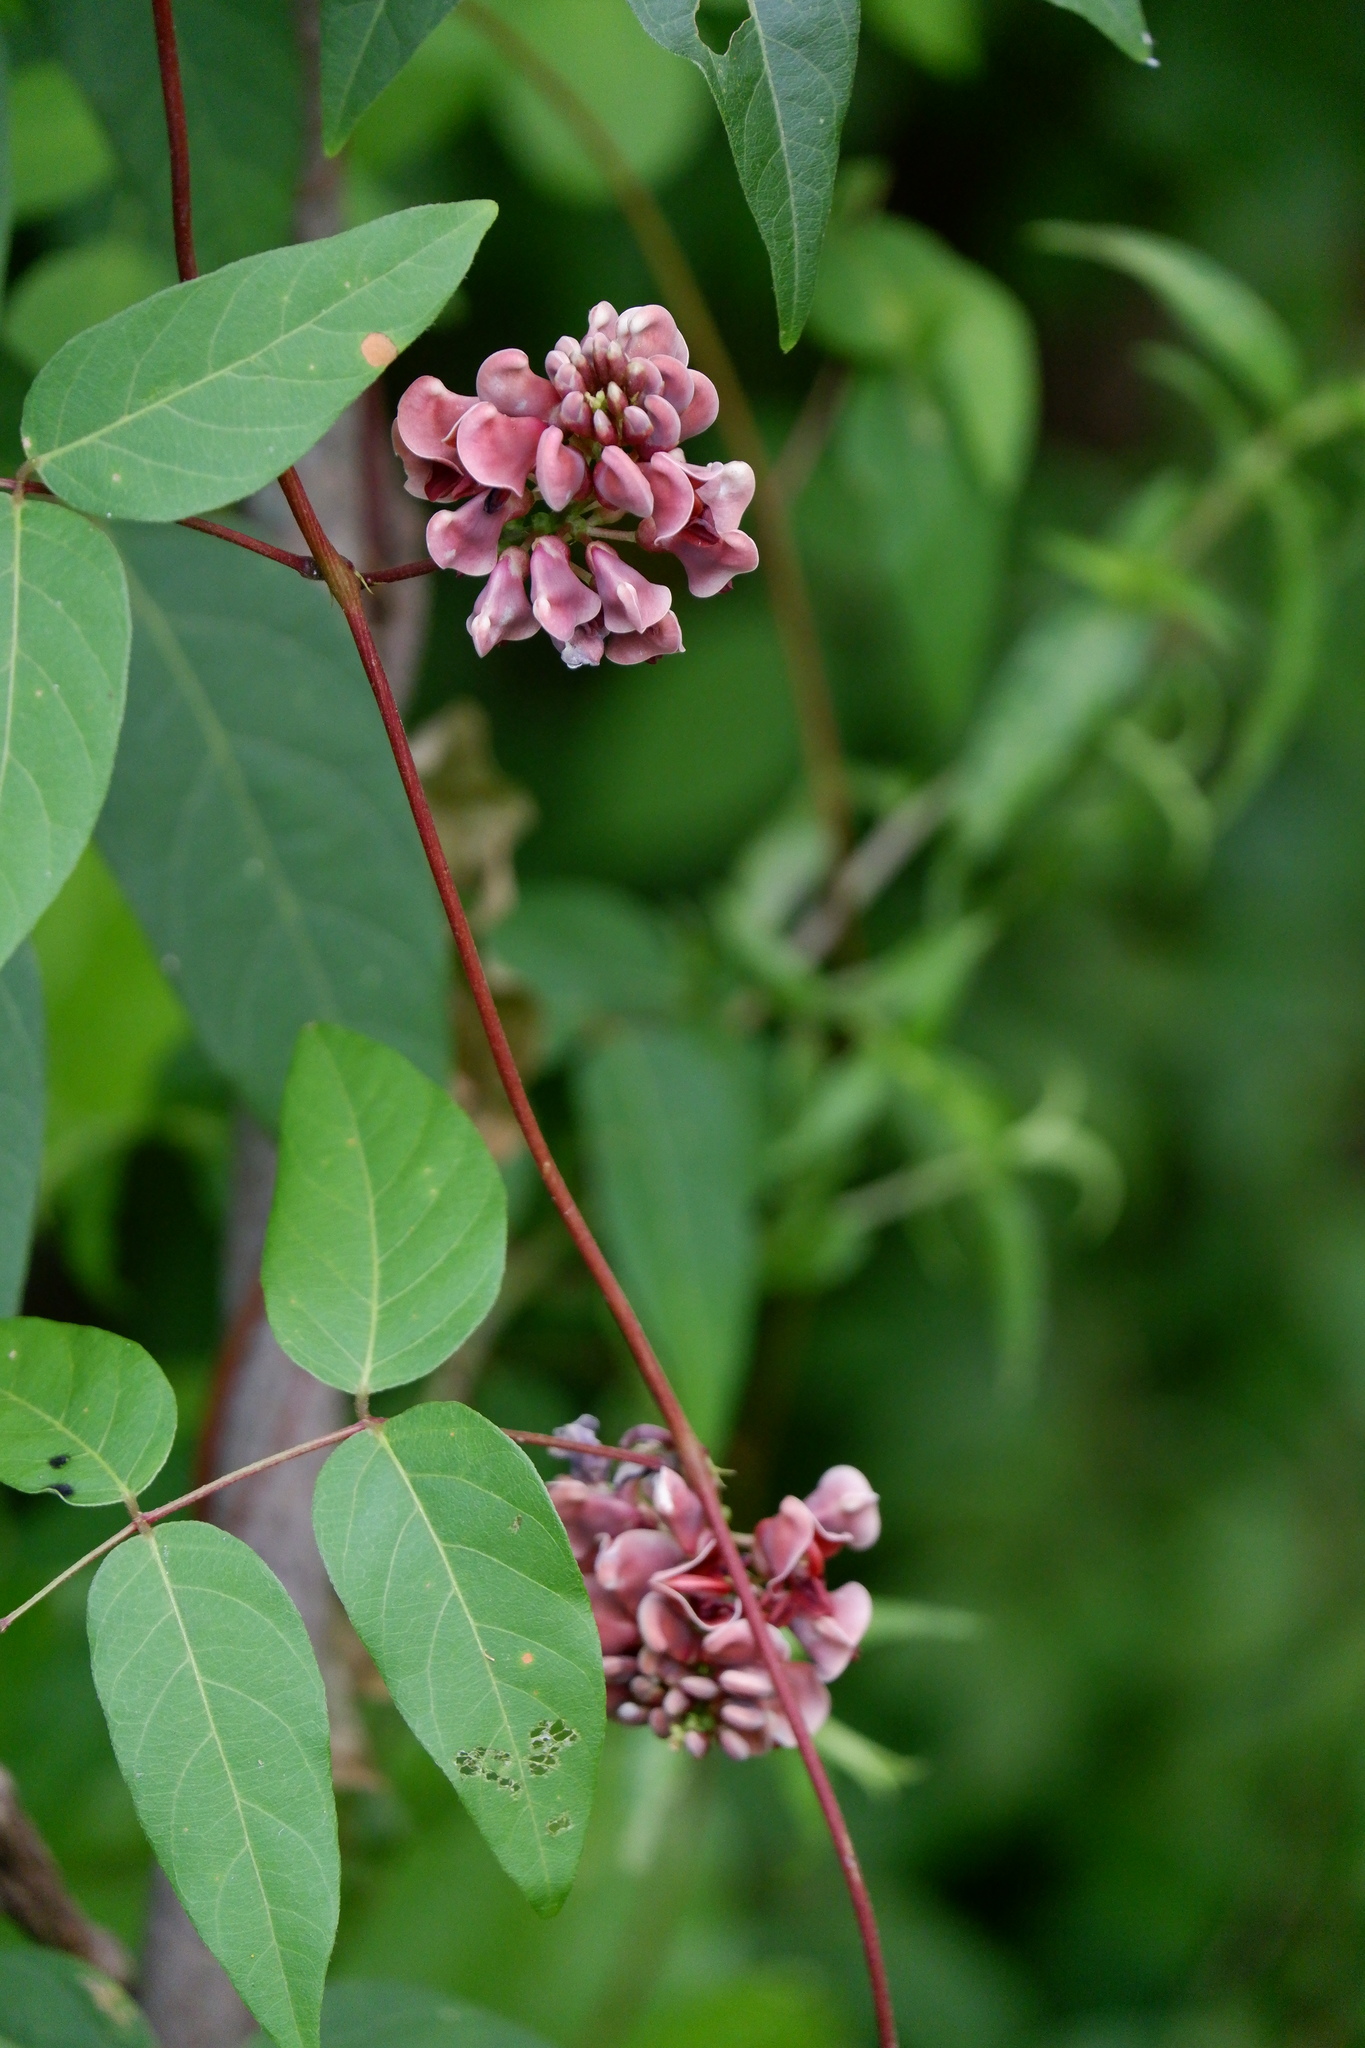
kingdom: Plantae
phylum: Tracheophyta
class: Magnoliopsida
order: Fabales
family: Fabaceae
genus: Apios
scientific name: Apios americana
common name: American potato-bean
